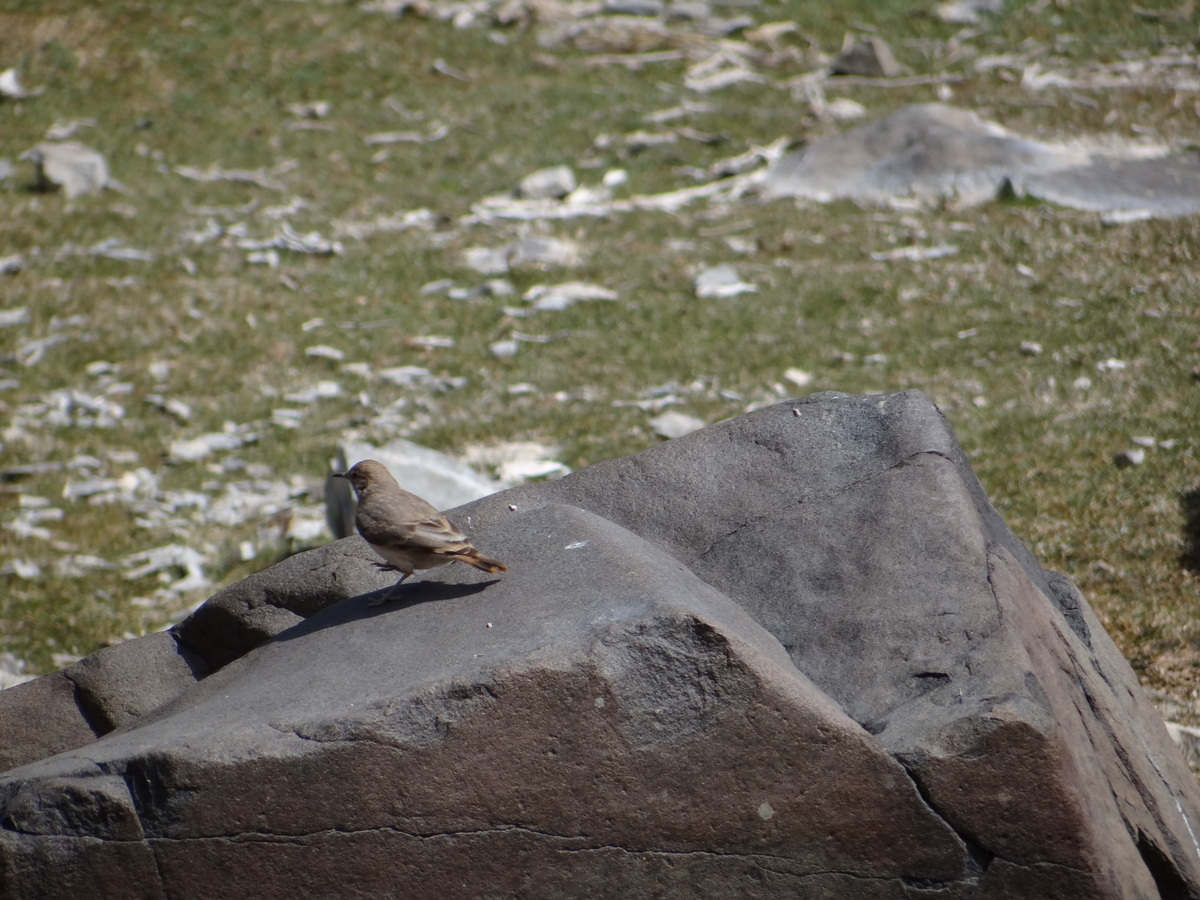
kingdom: Animalia
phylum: Chordata
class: Aves
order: Passeriformes
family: Furnariidae
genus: Geositta
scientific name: Geositta rufipennis
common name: Rufous-banded miner
